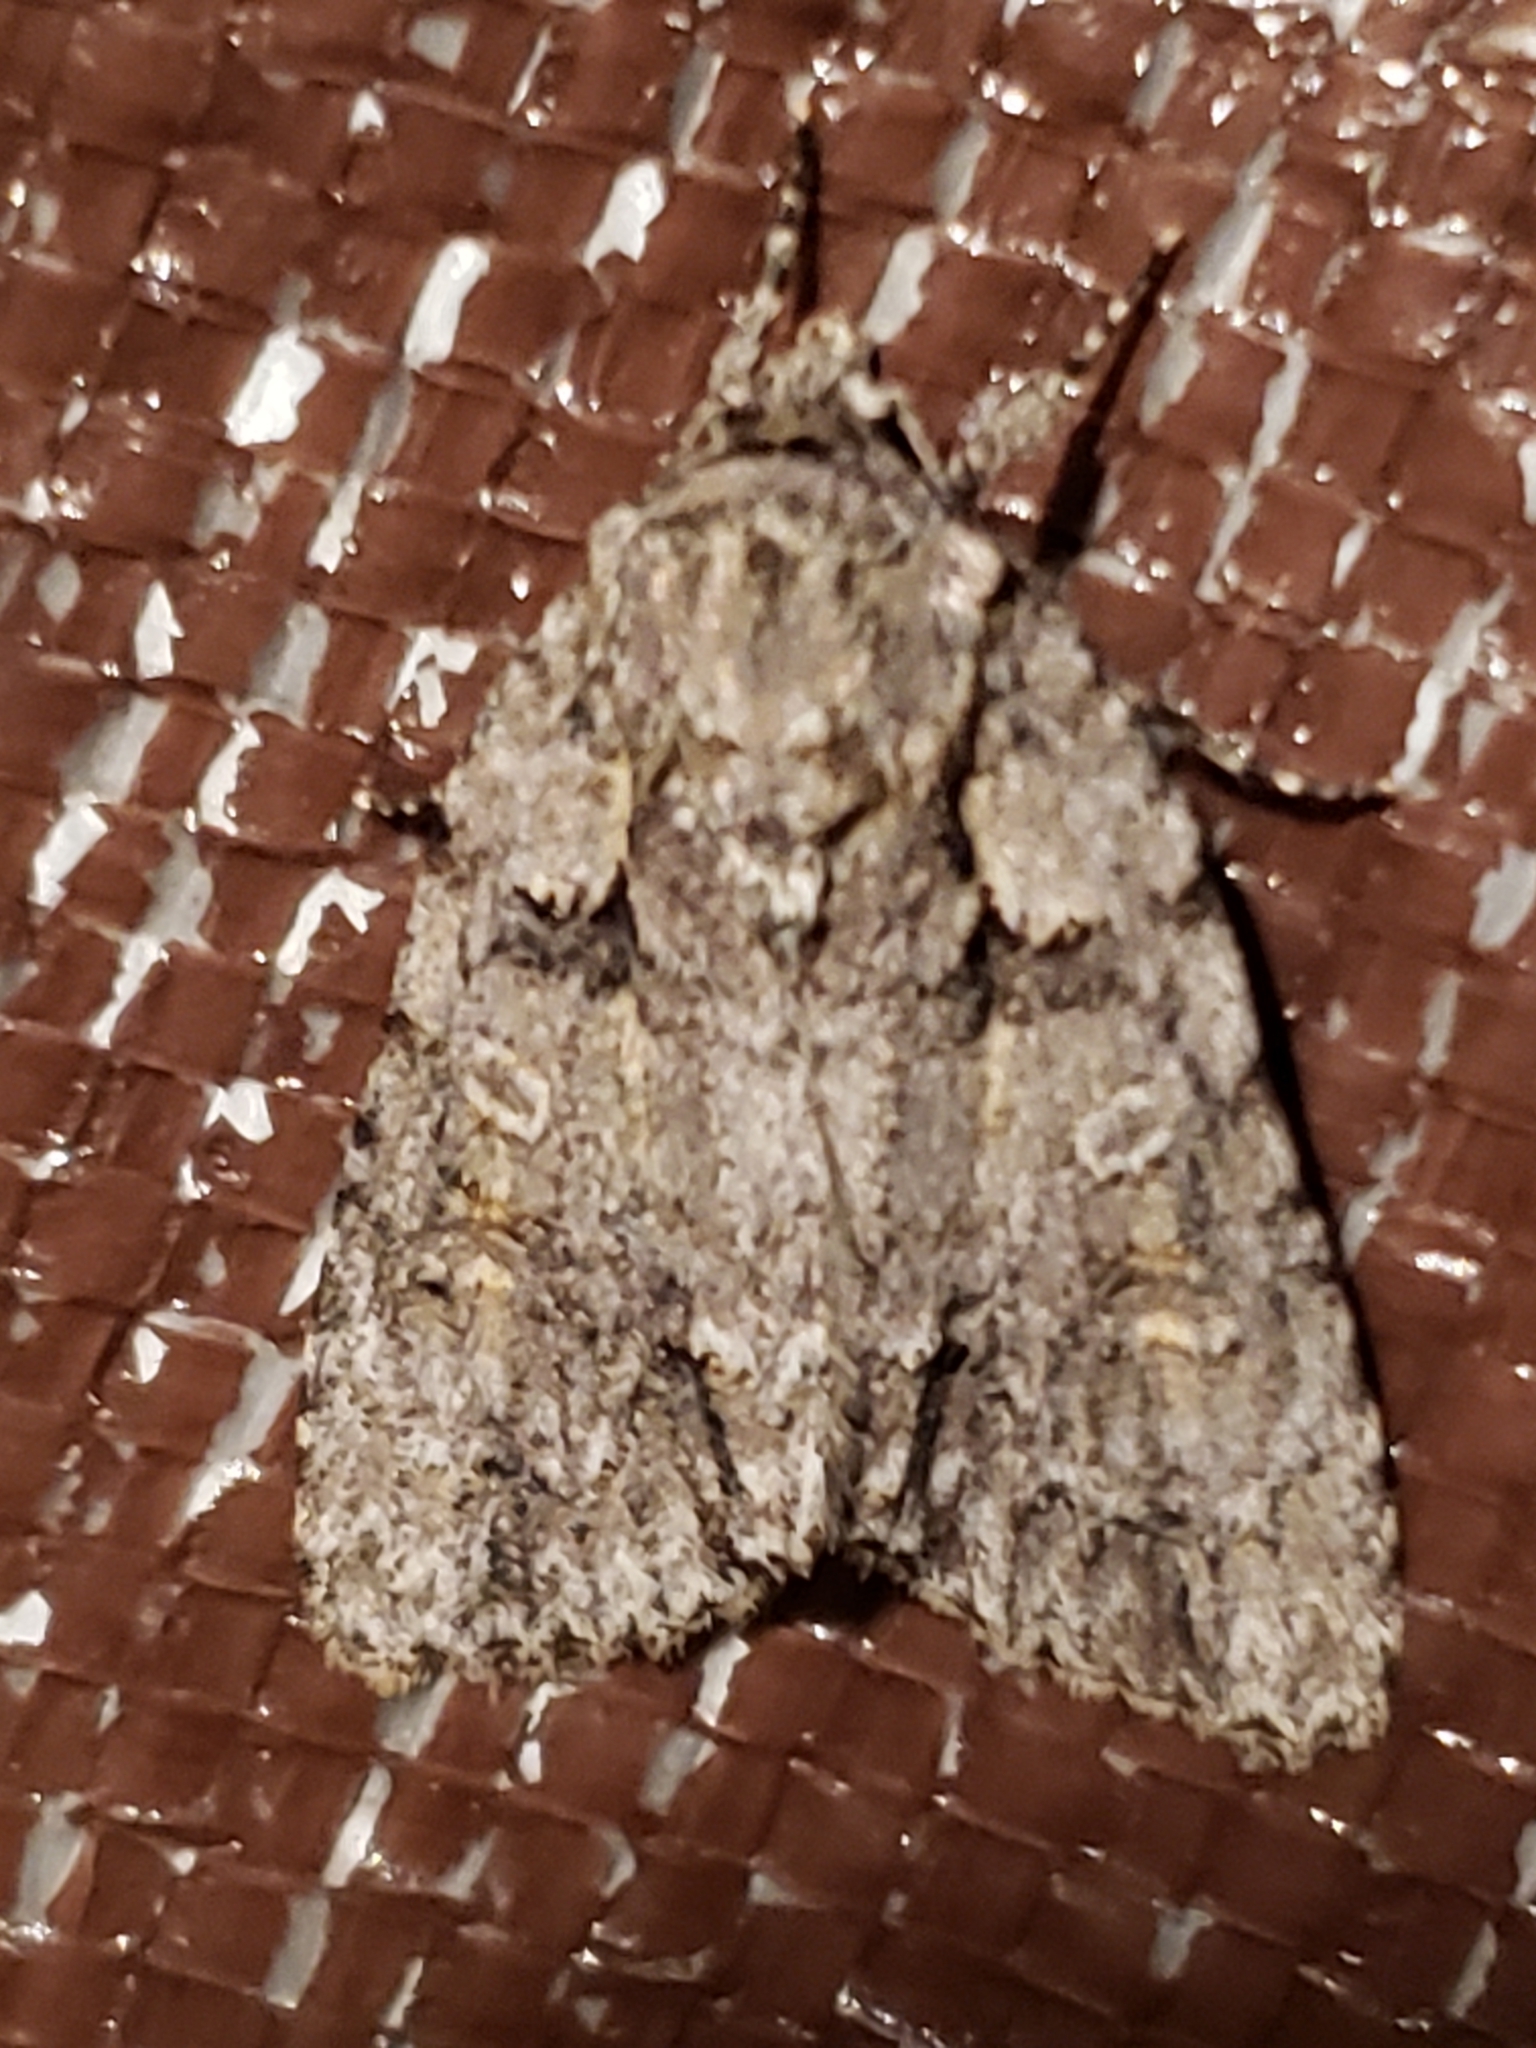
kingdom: Animalia
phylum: Arthropoda
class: Insecta
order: Lepidoptera
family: Noctuidae
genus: Acronicta
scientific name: Acronicta ovata
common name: Epauleted oak dagger
